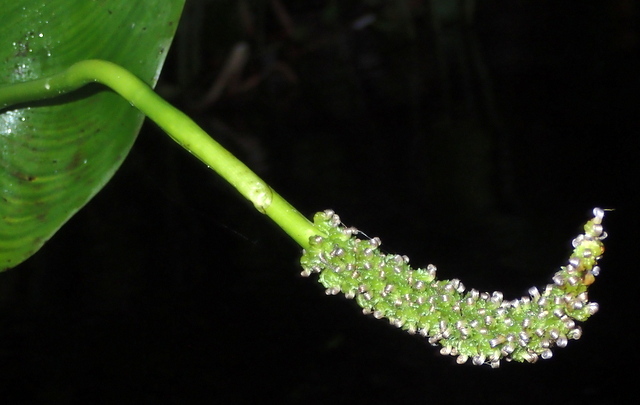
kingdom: Plantae
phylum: Tracheophyta
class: Liliopsida
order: Commelinales
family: Pontederiaceae
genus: Pontederia
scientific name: Pontederia cordata
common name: Pickerelweed
